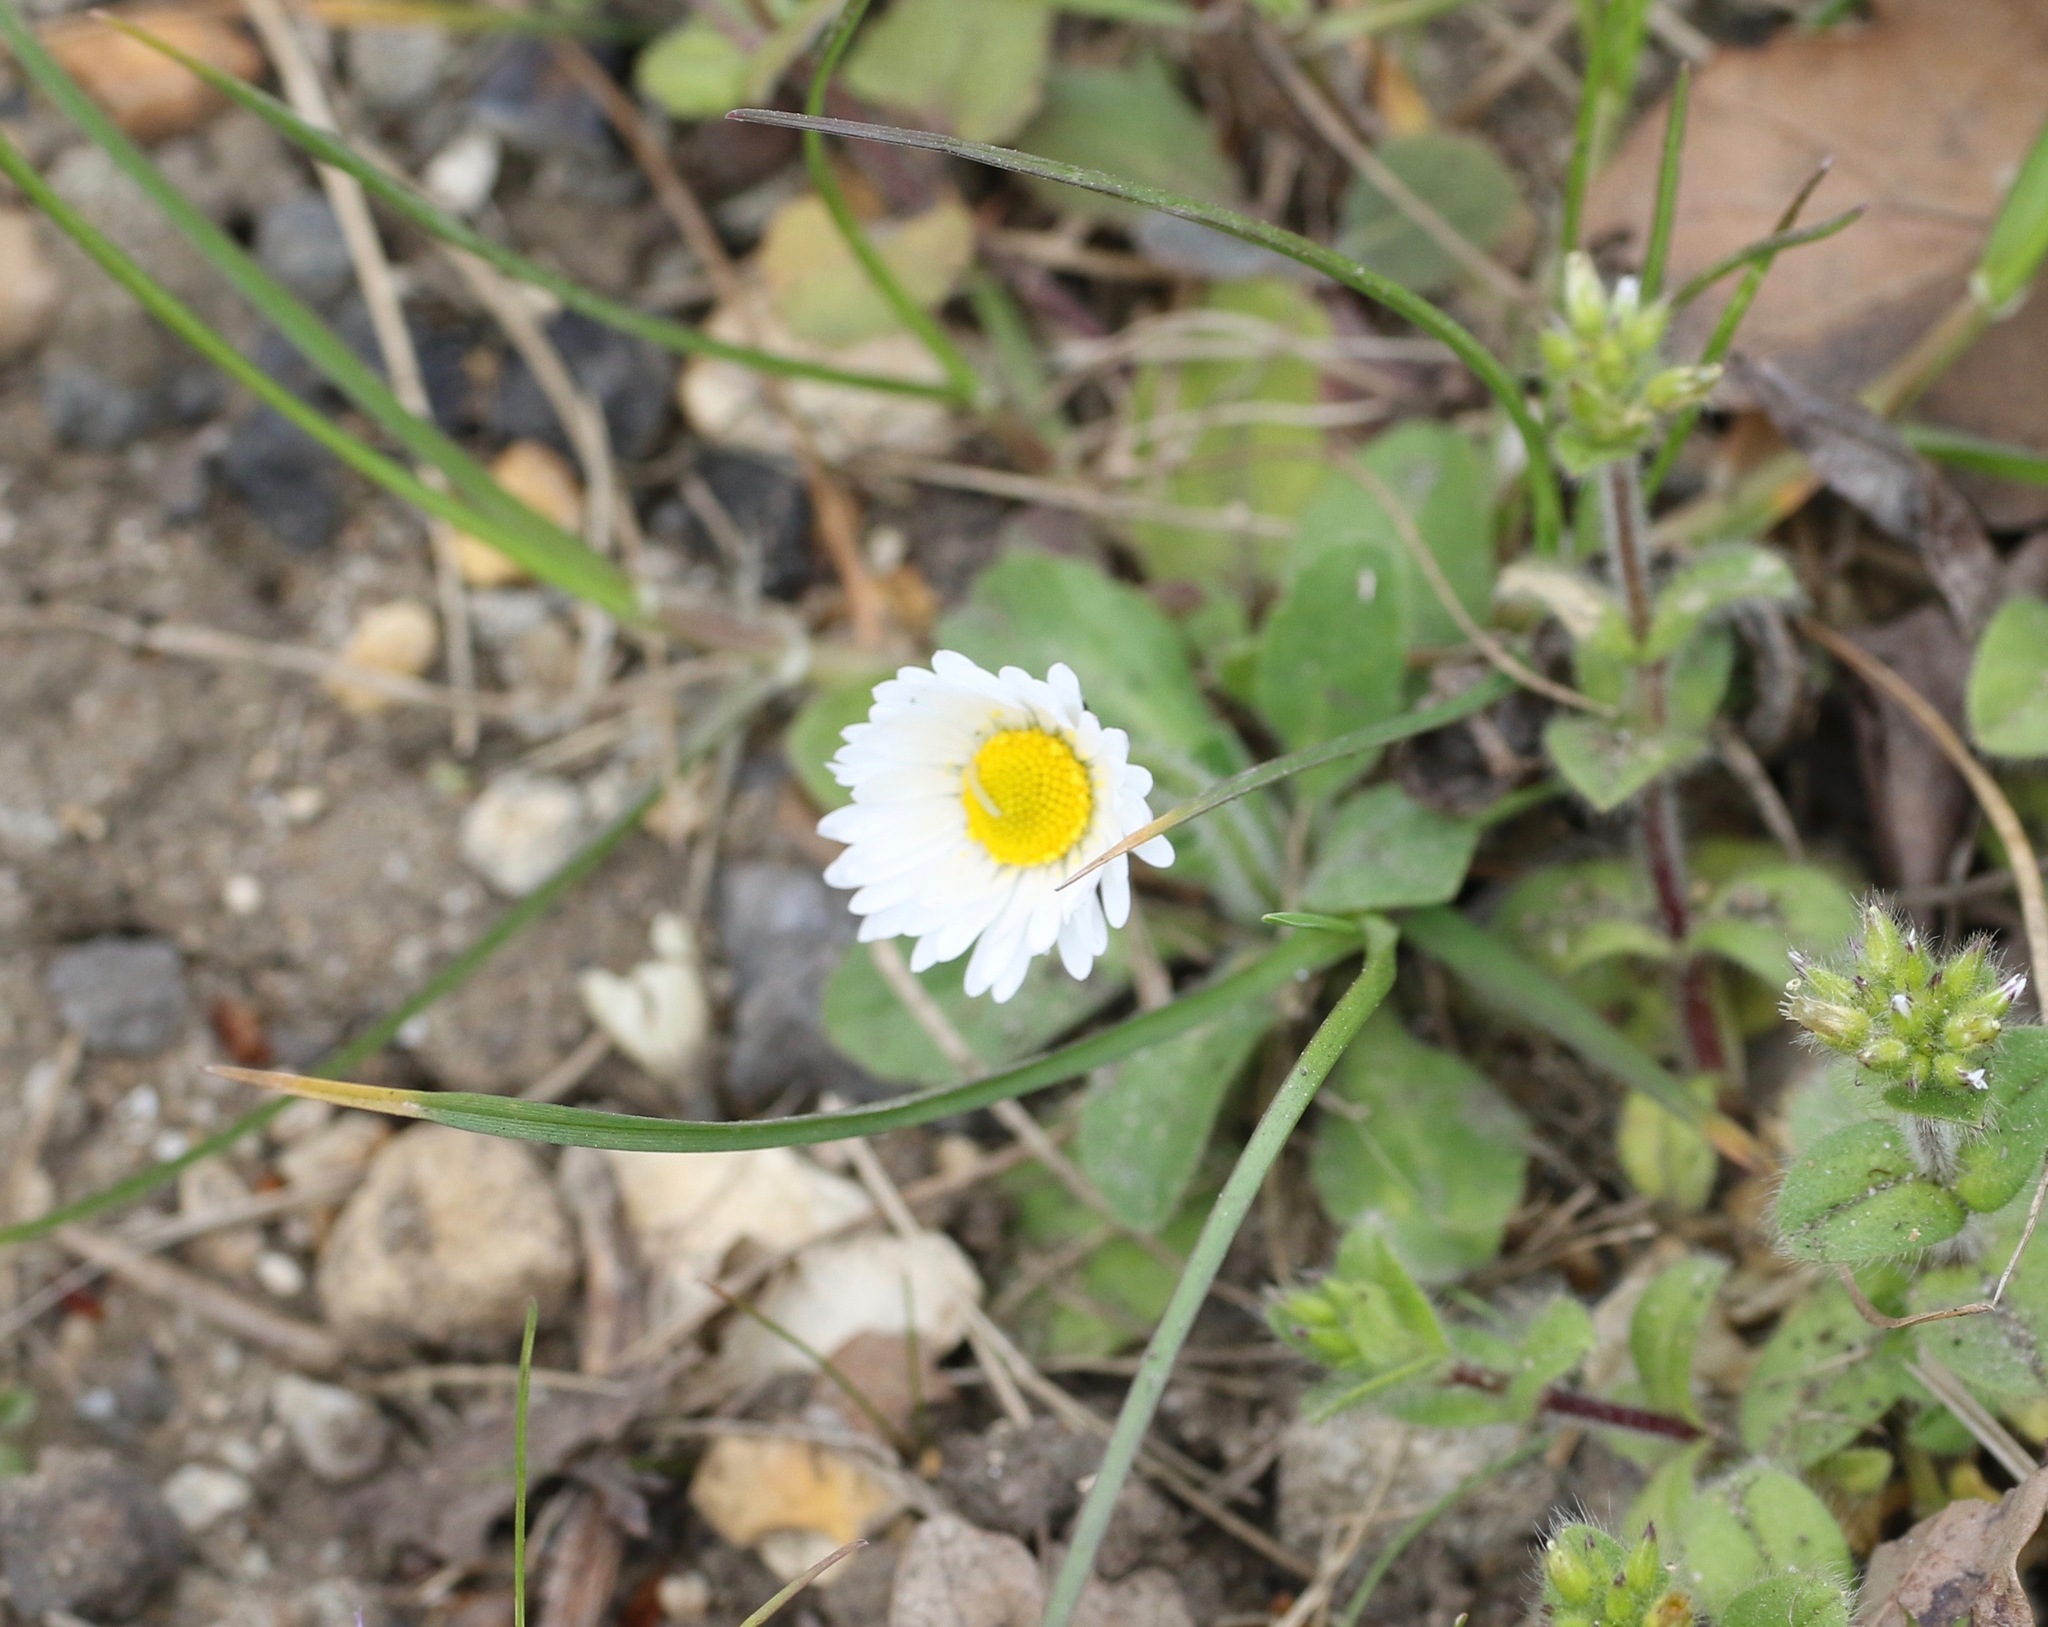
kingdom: Plantae
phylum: Tracheophyta
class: Magnoliopsida
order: Asterales
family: Asteraceae
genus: Bellis
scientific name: Bellis perennis
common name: Lawndaisy
